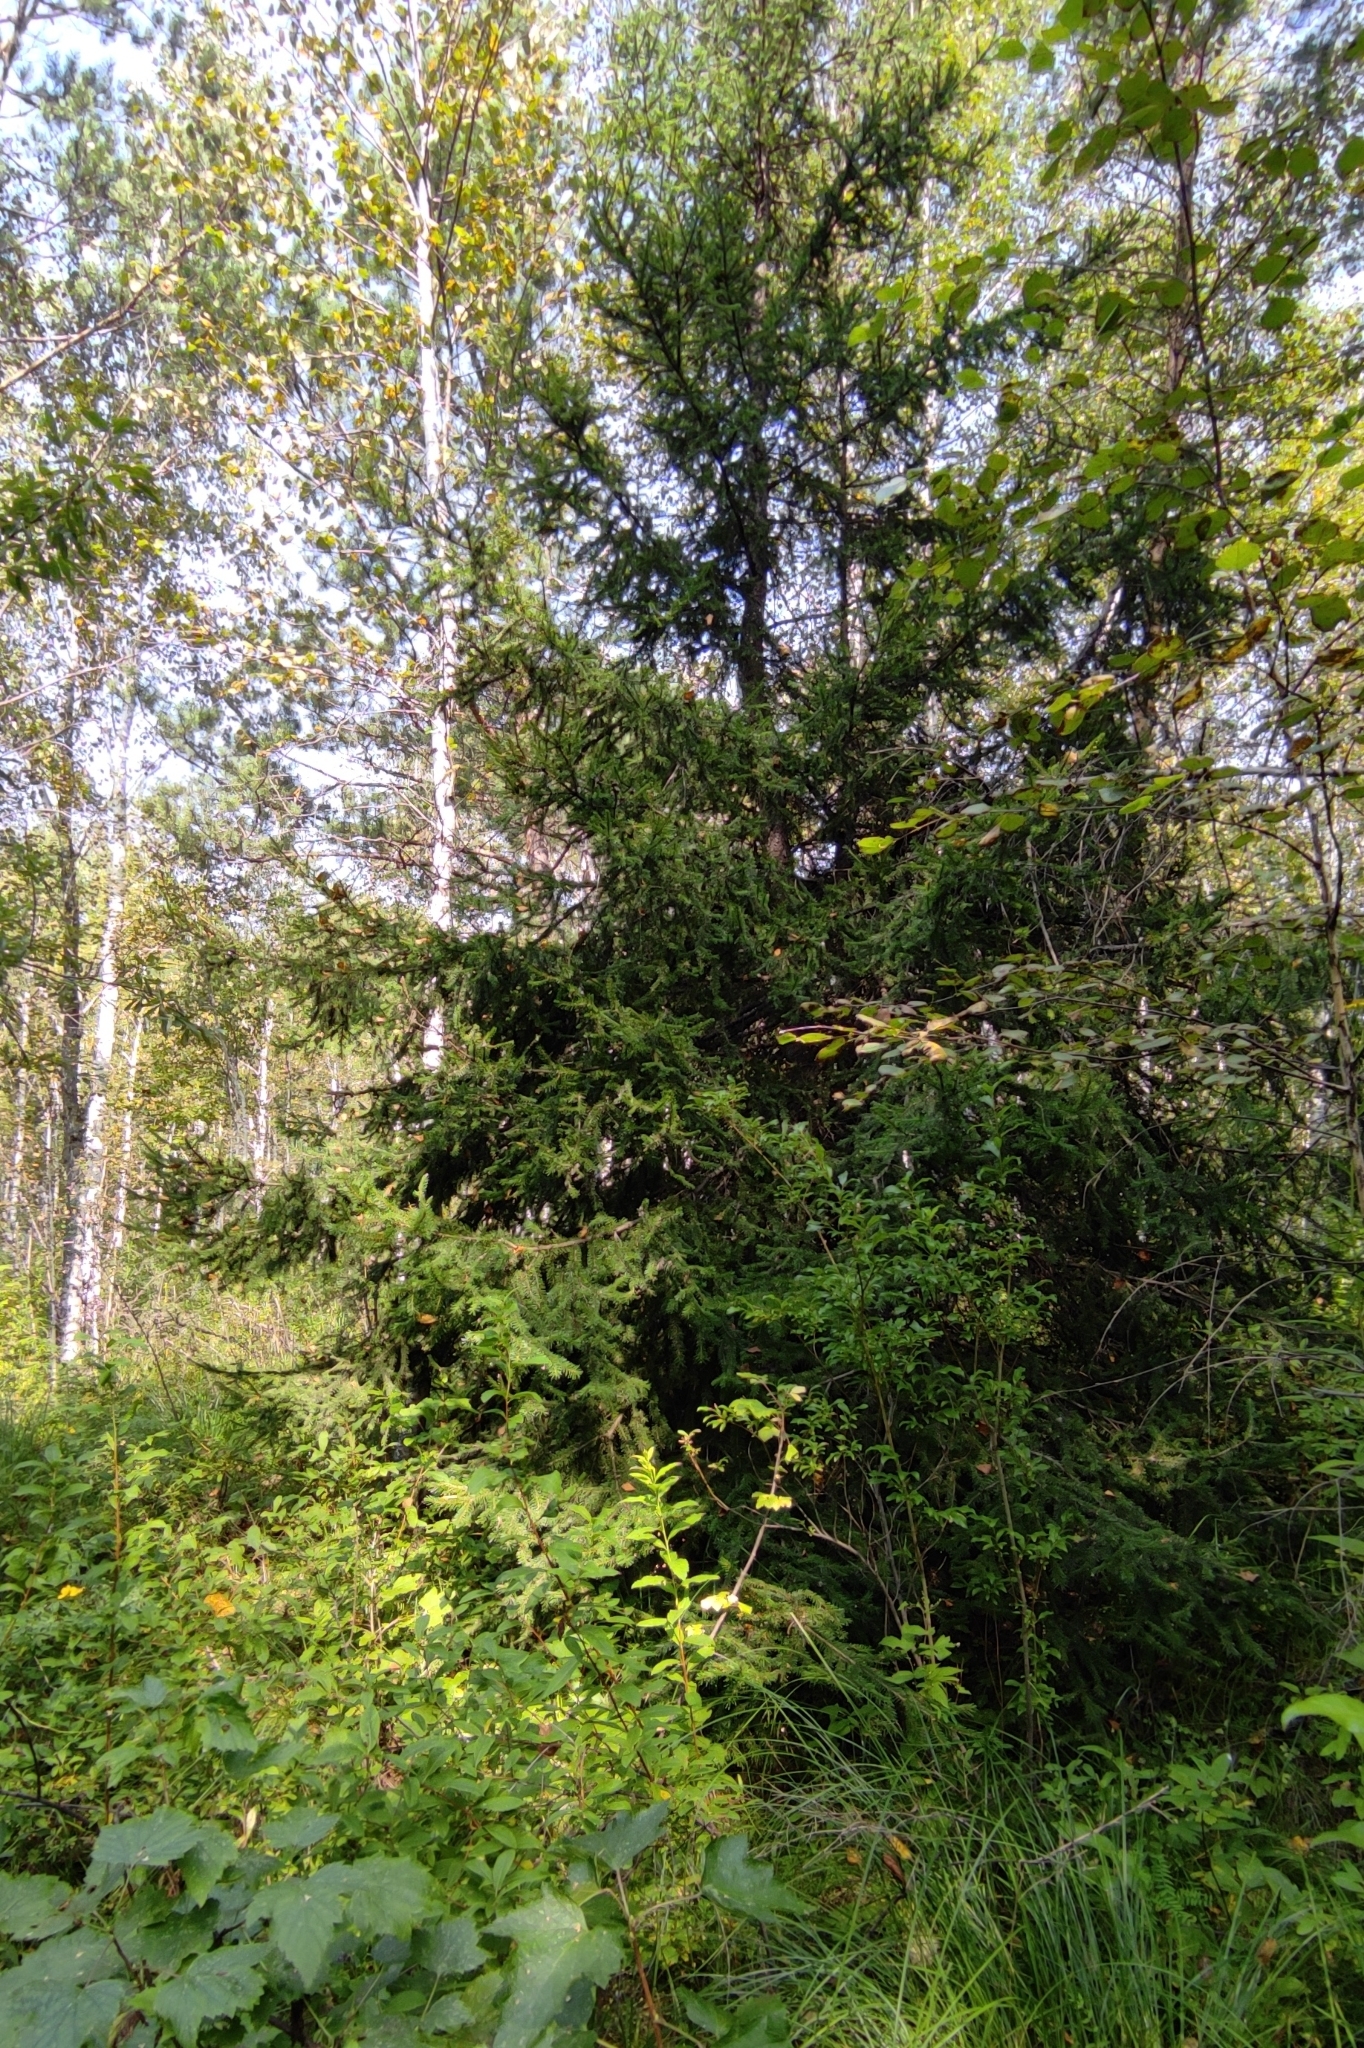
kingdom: Plantae
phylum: Tracheophyta
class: Pinopsida
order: Pinales
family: Pinaceae
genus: Picea
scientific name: Picea obovata
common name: Siberian spruce
